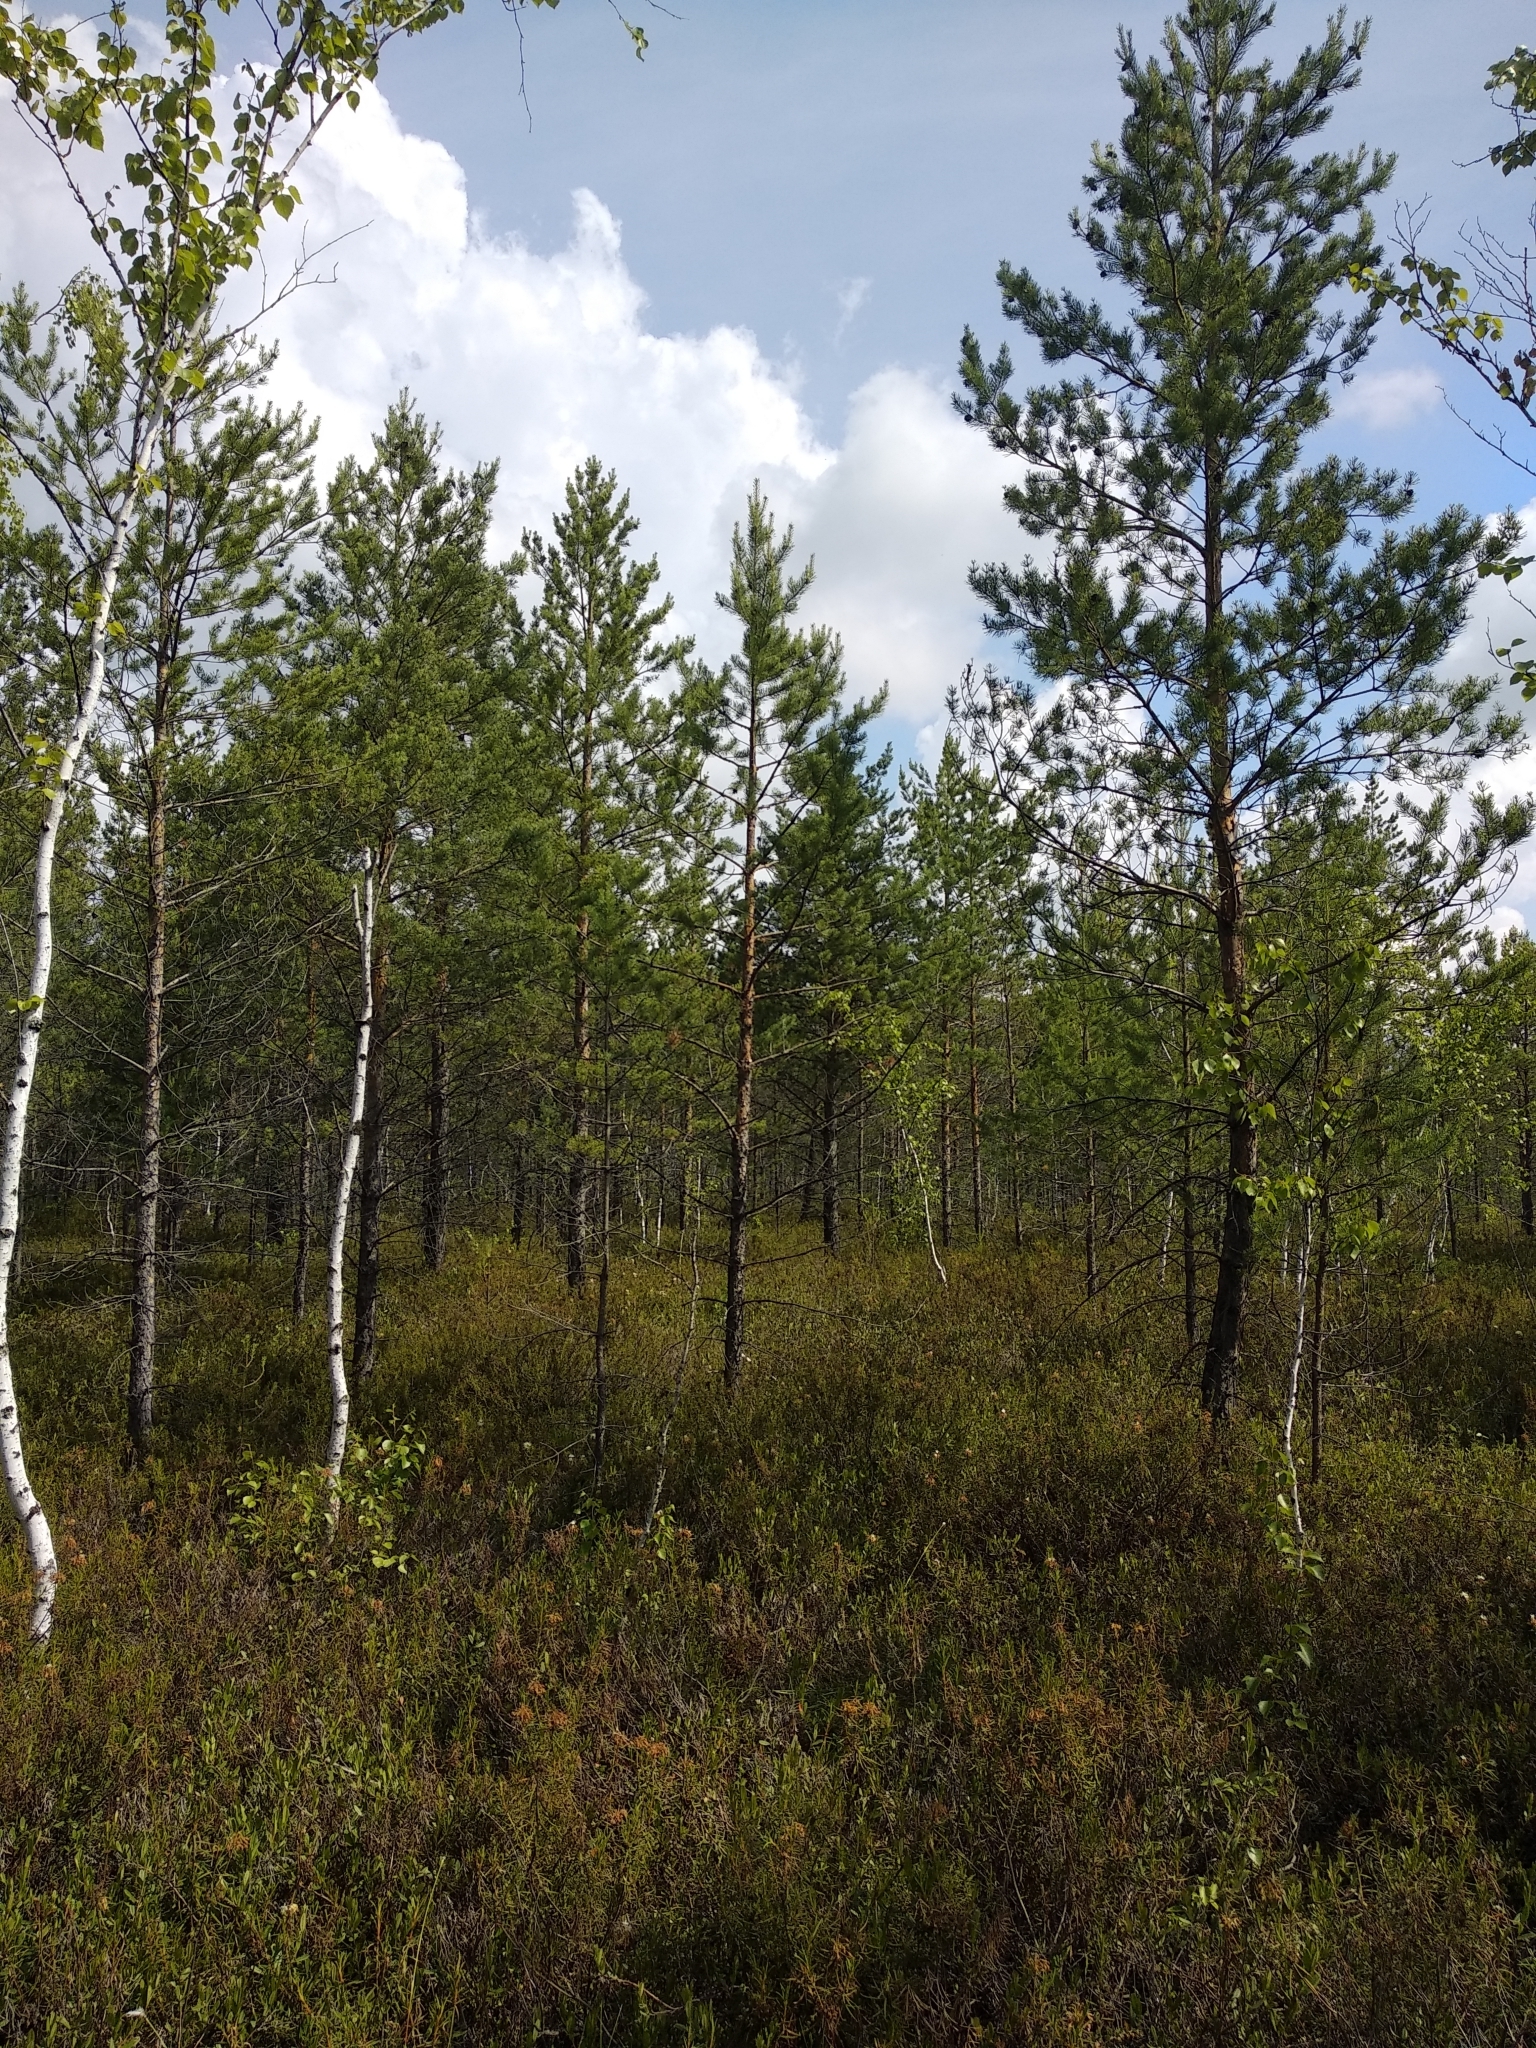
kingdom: Plantae
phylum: Tracheophyta
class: Pinopsida
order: Pinales
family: Pinaceae
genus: Pinus
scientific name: Pinus sylvestris
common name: Scots pine
